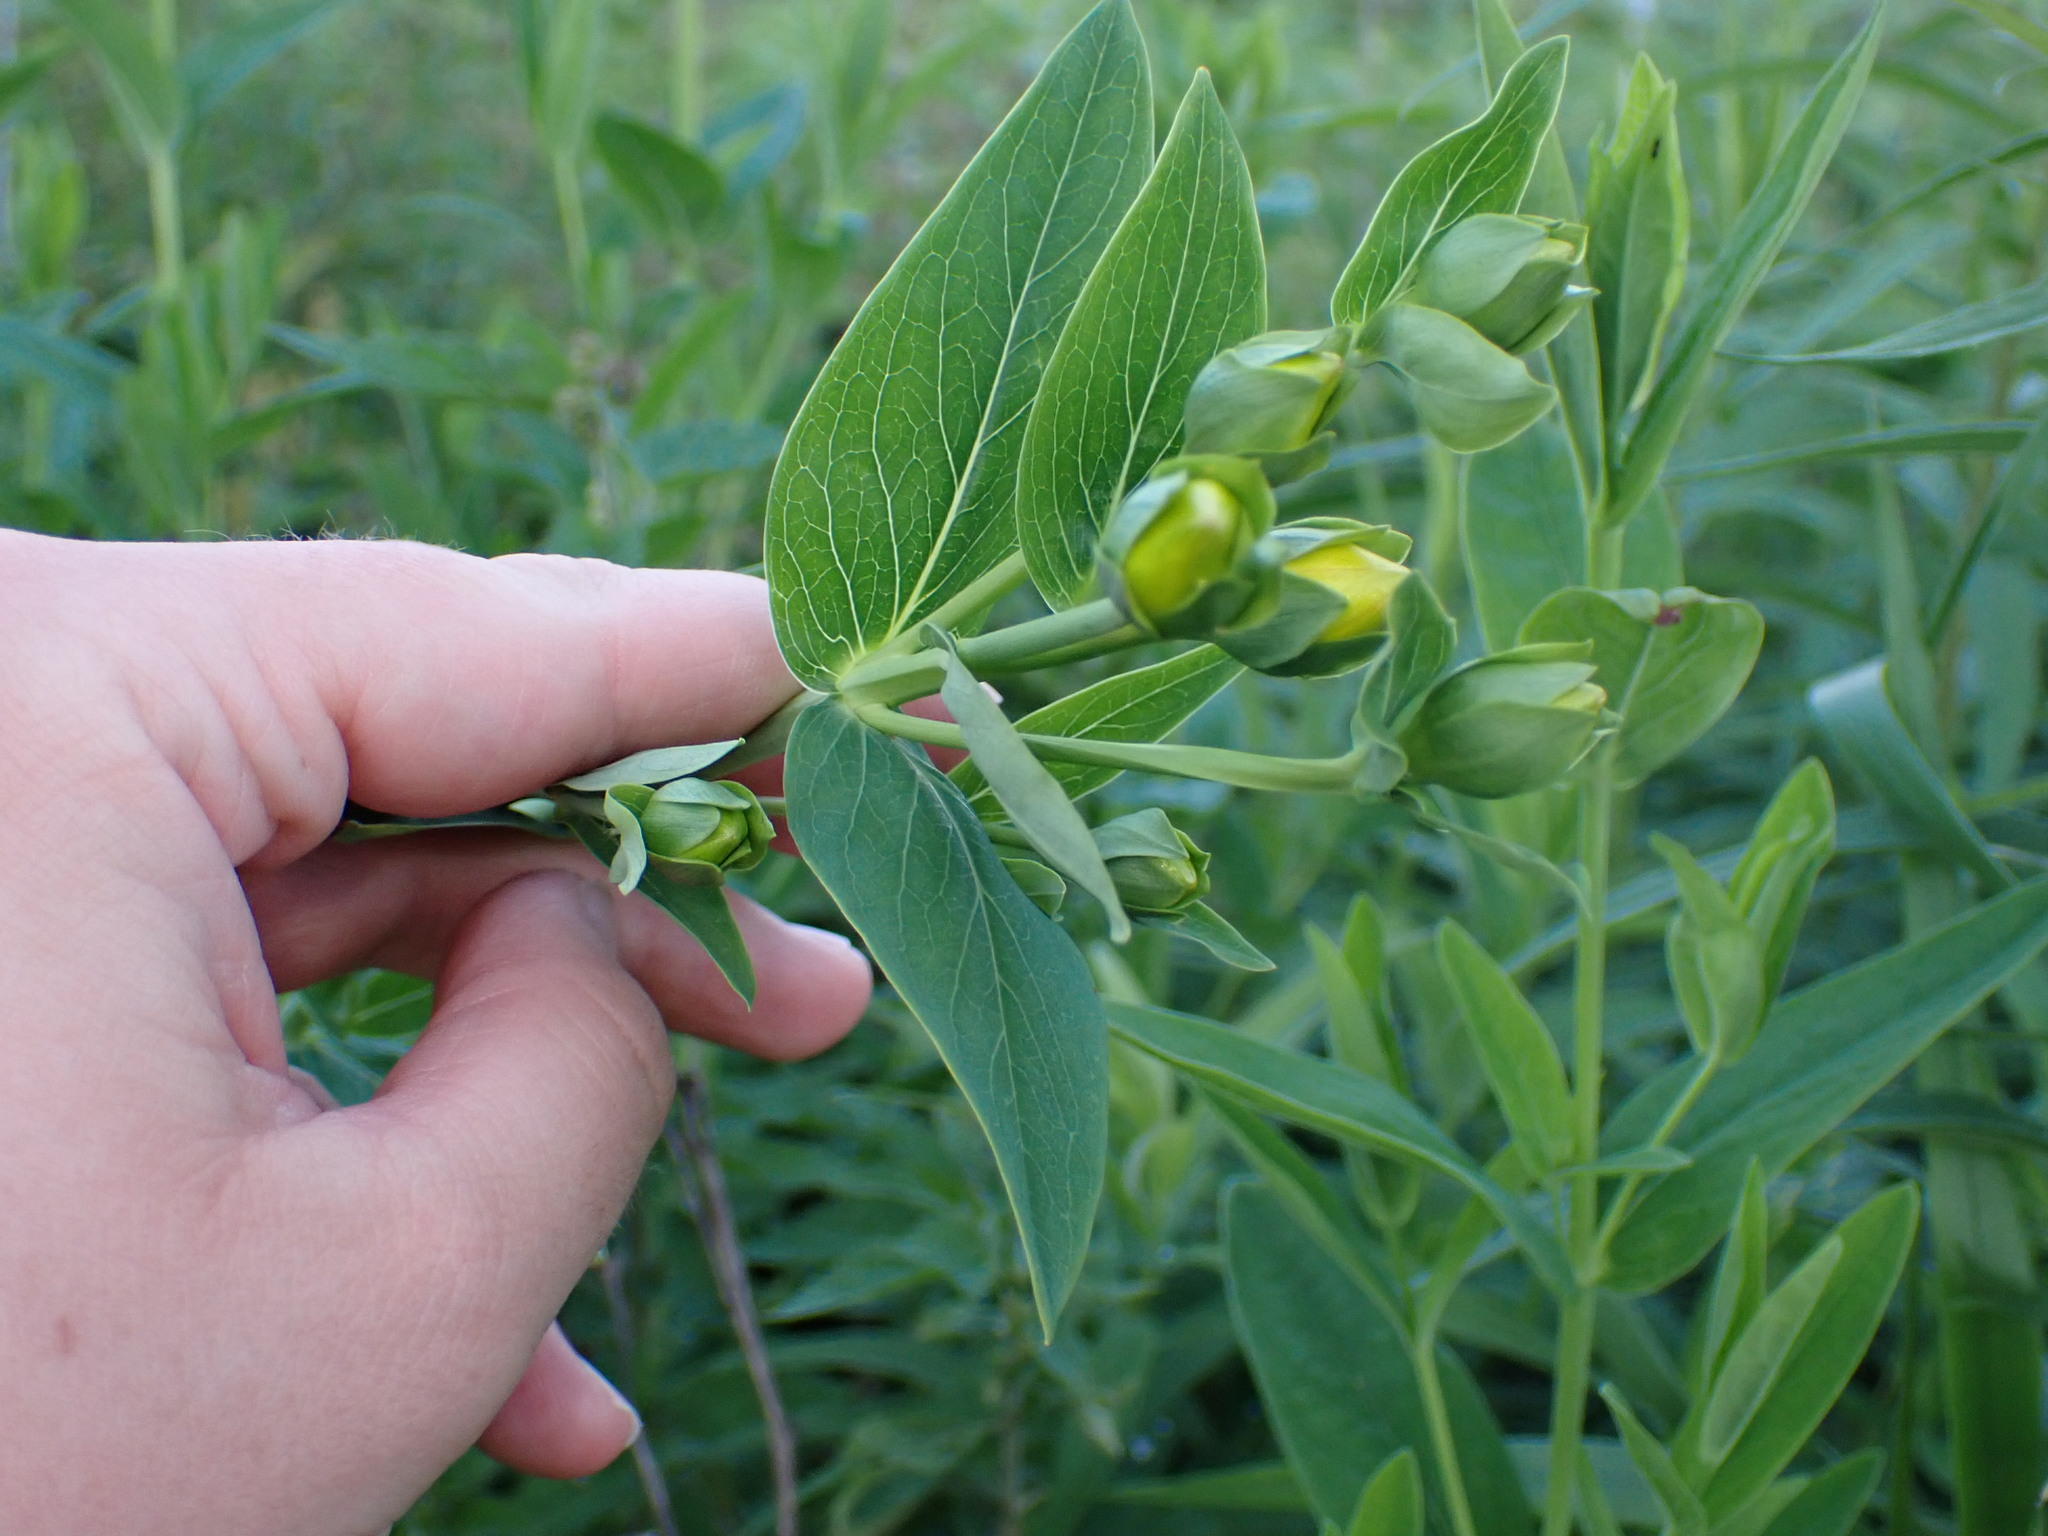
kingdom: Plantae
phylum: Tracheophyta
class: Magnoliopsida
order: Malpighiales
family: Hypericaceae
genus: Hypericum
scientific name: Hypericum ascyron
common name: Giant st. john's-wort
